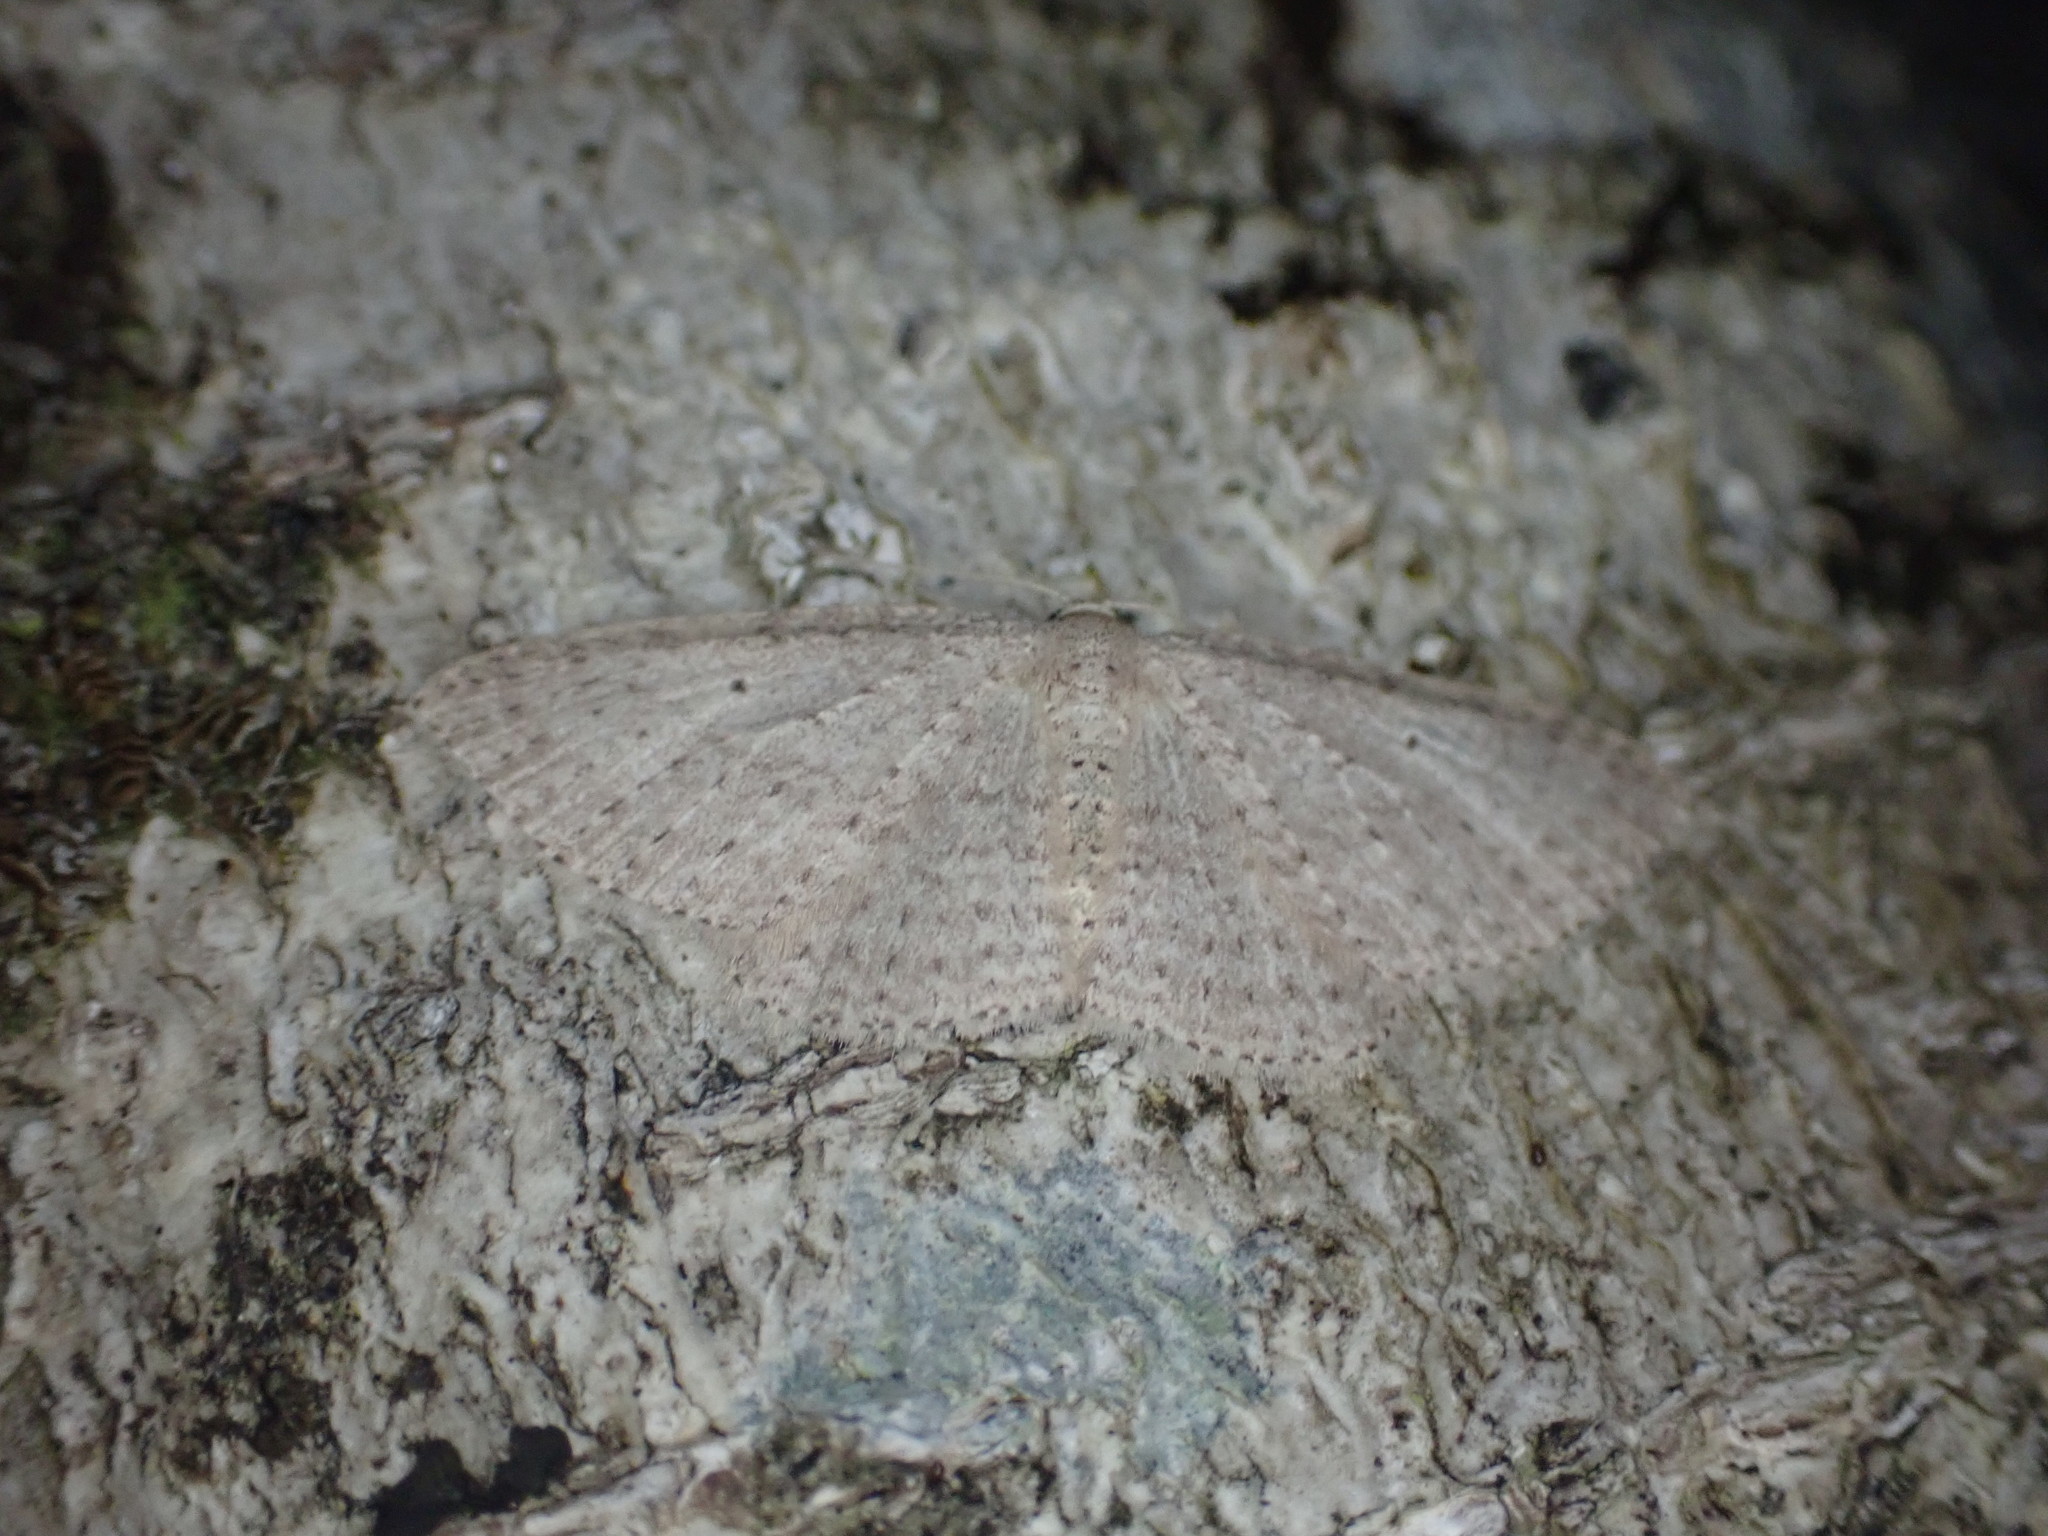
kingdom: Animalia
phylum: Arthropoda
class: Insecta
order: Lepidoptera
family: Geometridae
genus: Poecilasthena
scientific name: Poecilasthena schistaria
